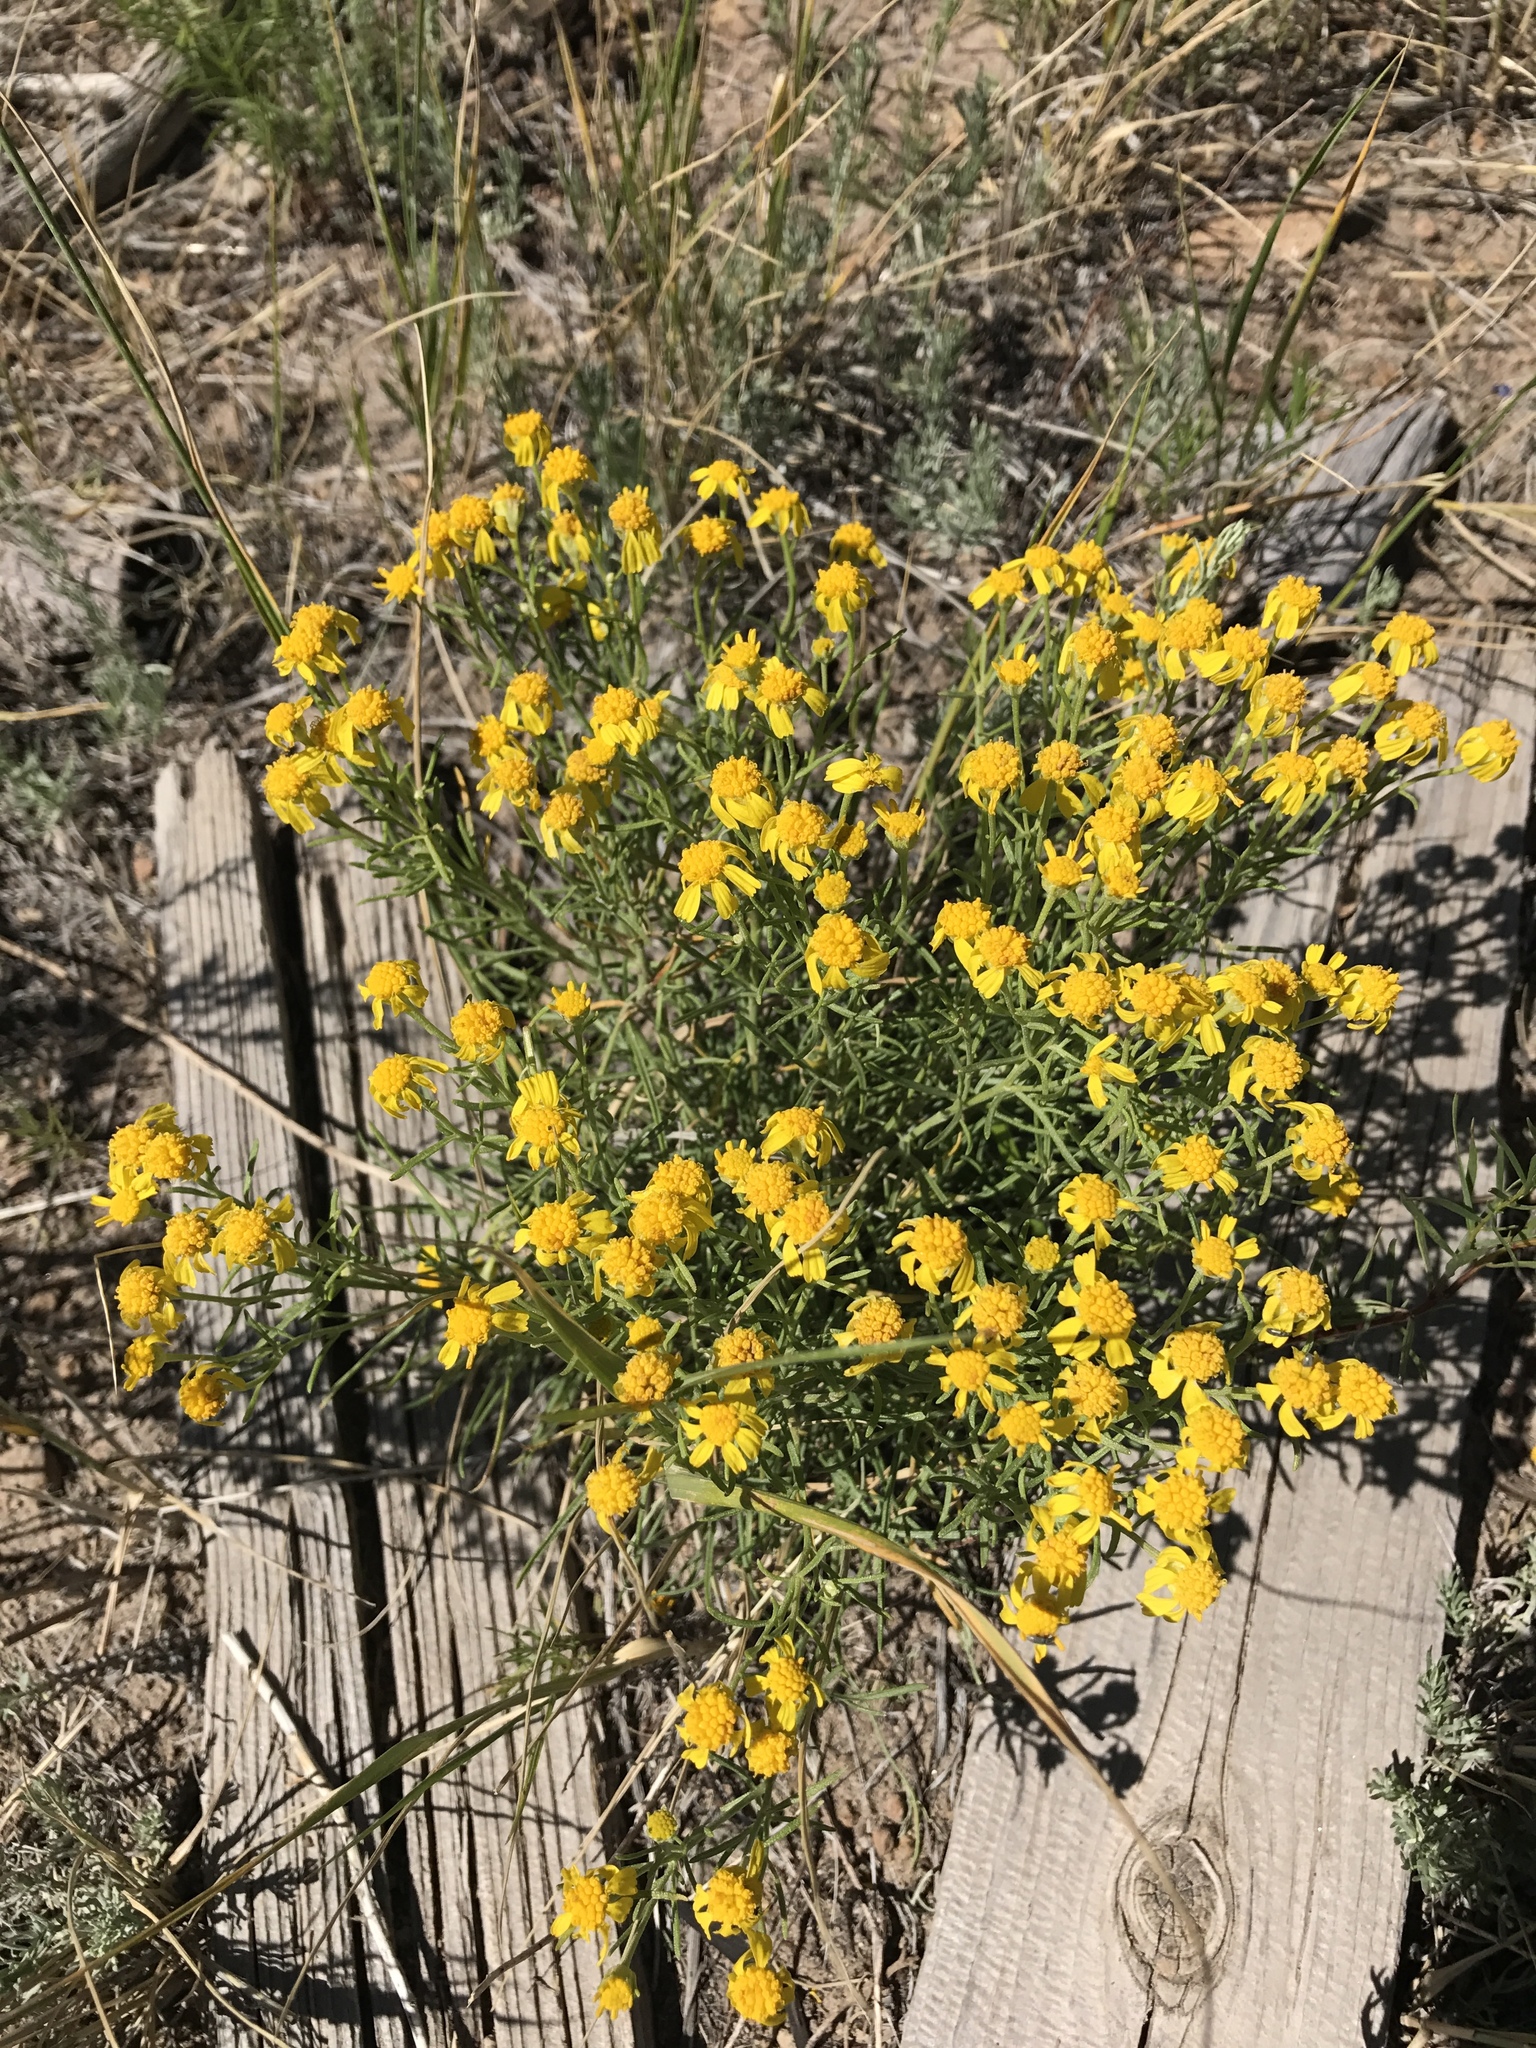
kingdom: Plantae
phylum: Tracheophyta
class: Magnoliopsida
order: Asterales
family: Asteraceae
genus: Hymenoxys
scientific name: Hymenoxys rusbyi
